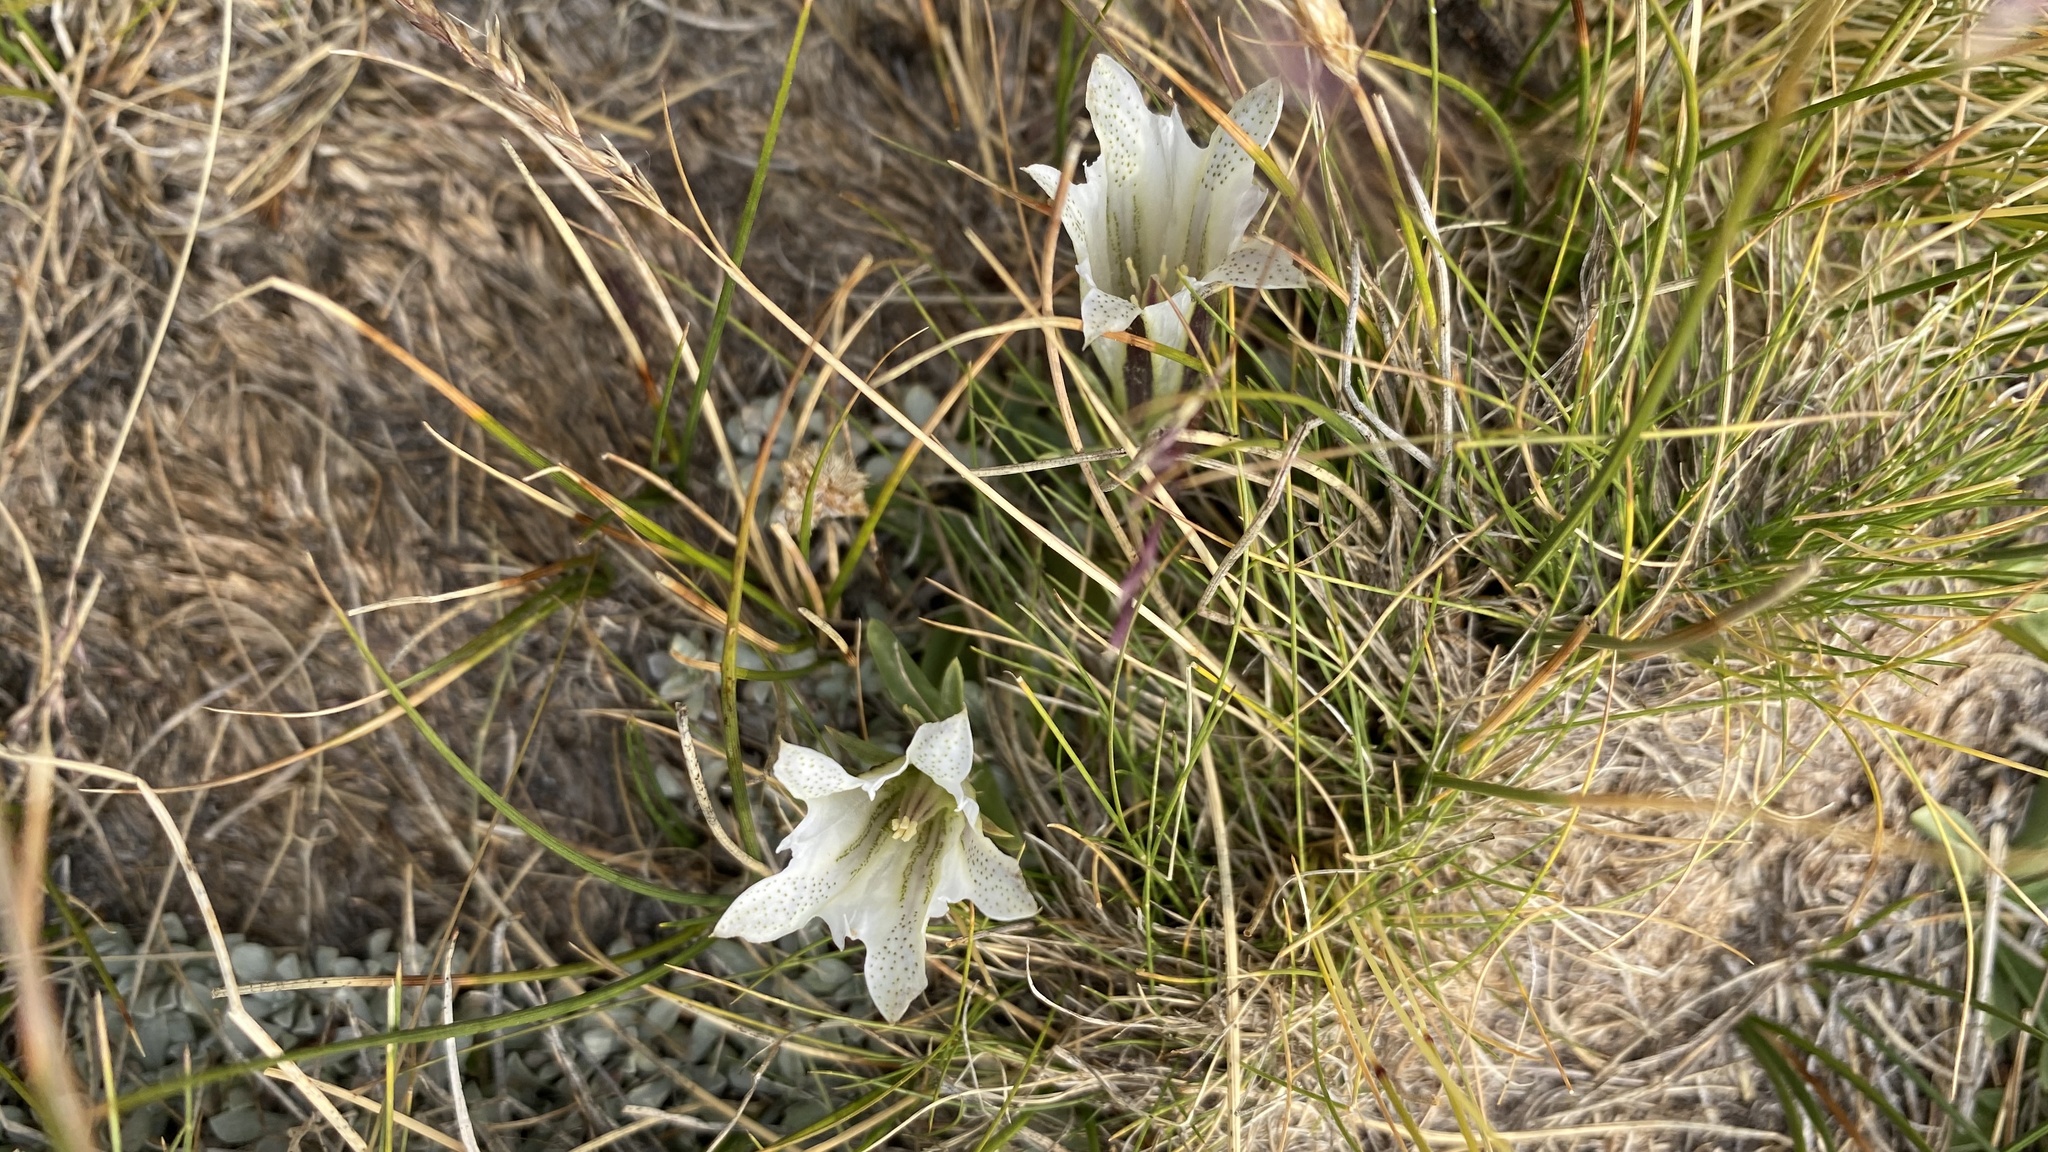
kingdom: Plantae
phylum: Tracheophyta
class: Magnoliopsida
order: Gentianales
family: Gentianaceae
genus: Gentiana
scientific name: Gentiana newberryi
